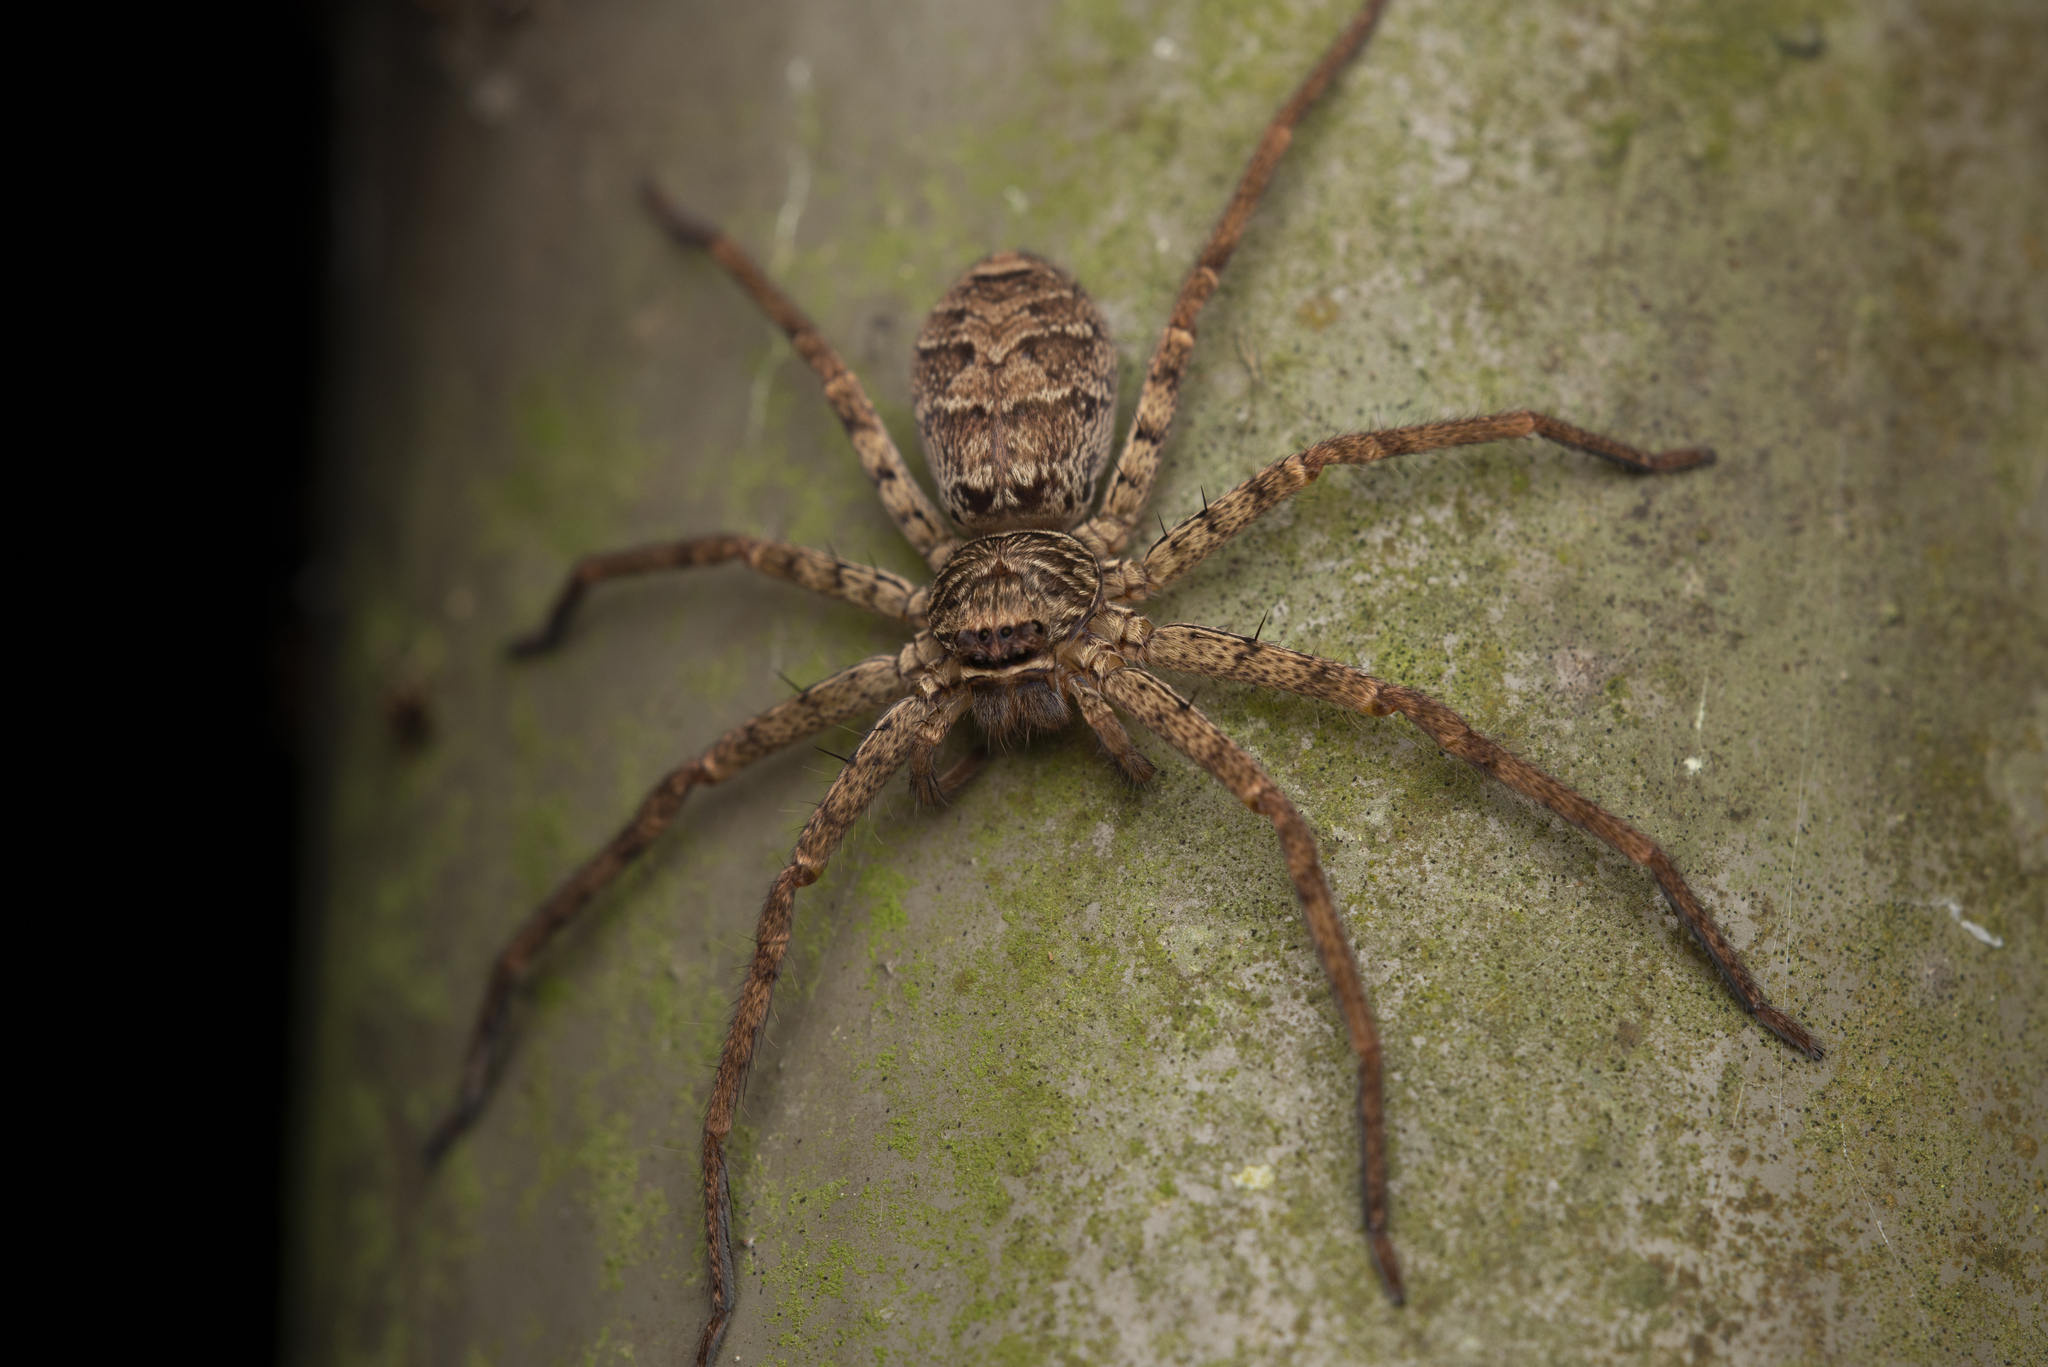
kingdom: Animalia
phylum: Arthropoda
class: Arachnida
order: Araneae
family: Sparassidae
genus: Heteropoda
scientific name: Heteropoda venatoria
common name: Huntsman spider
